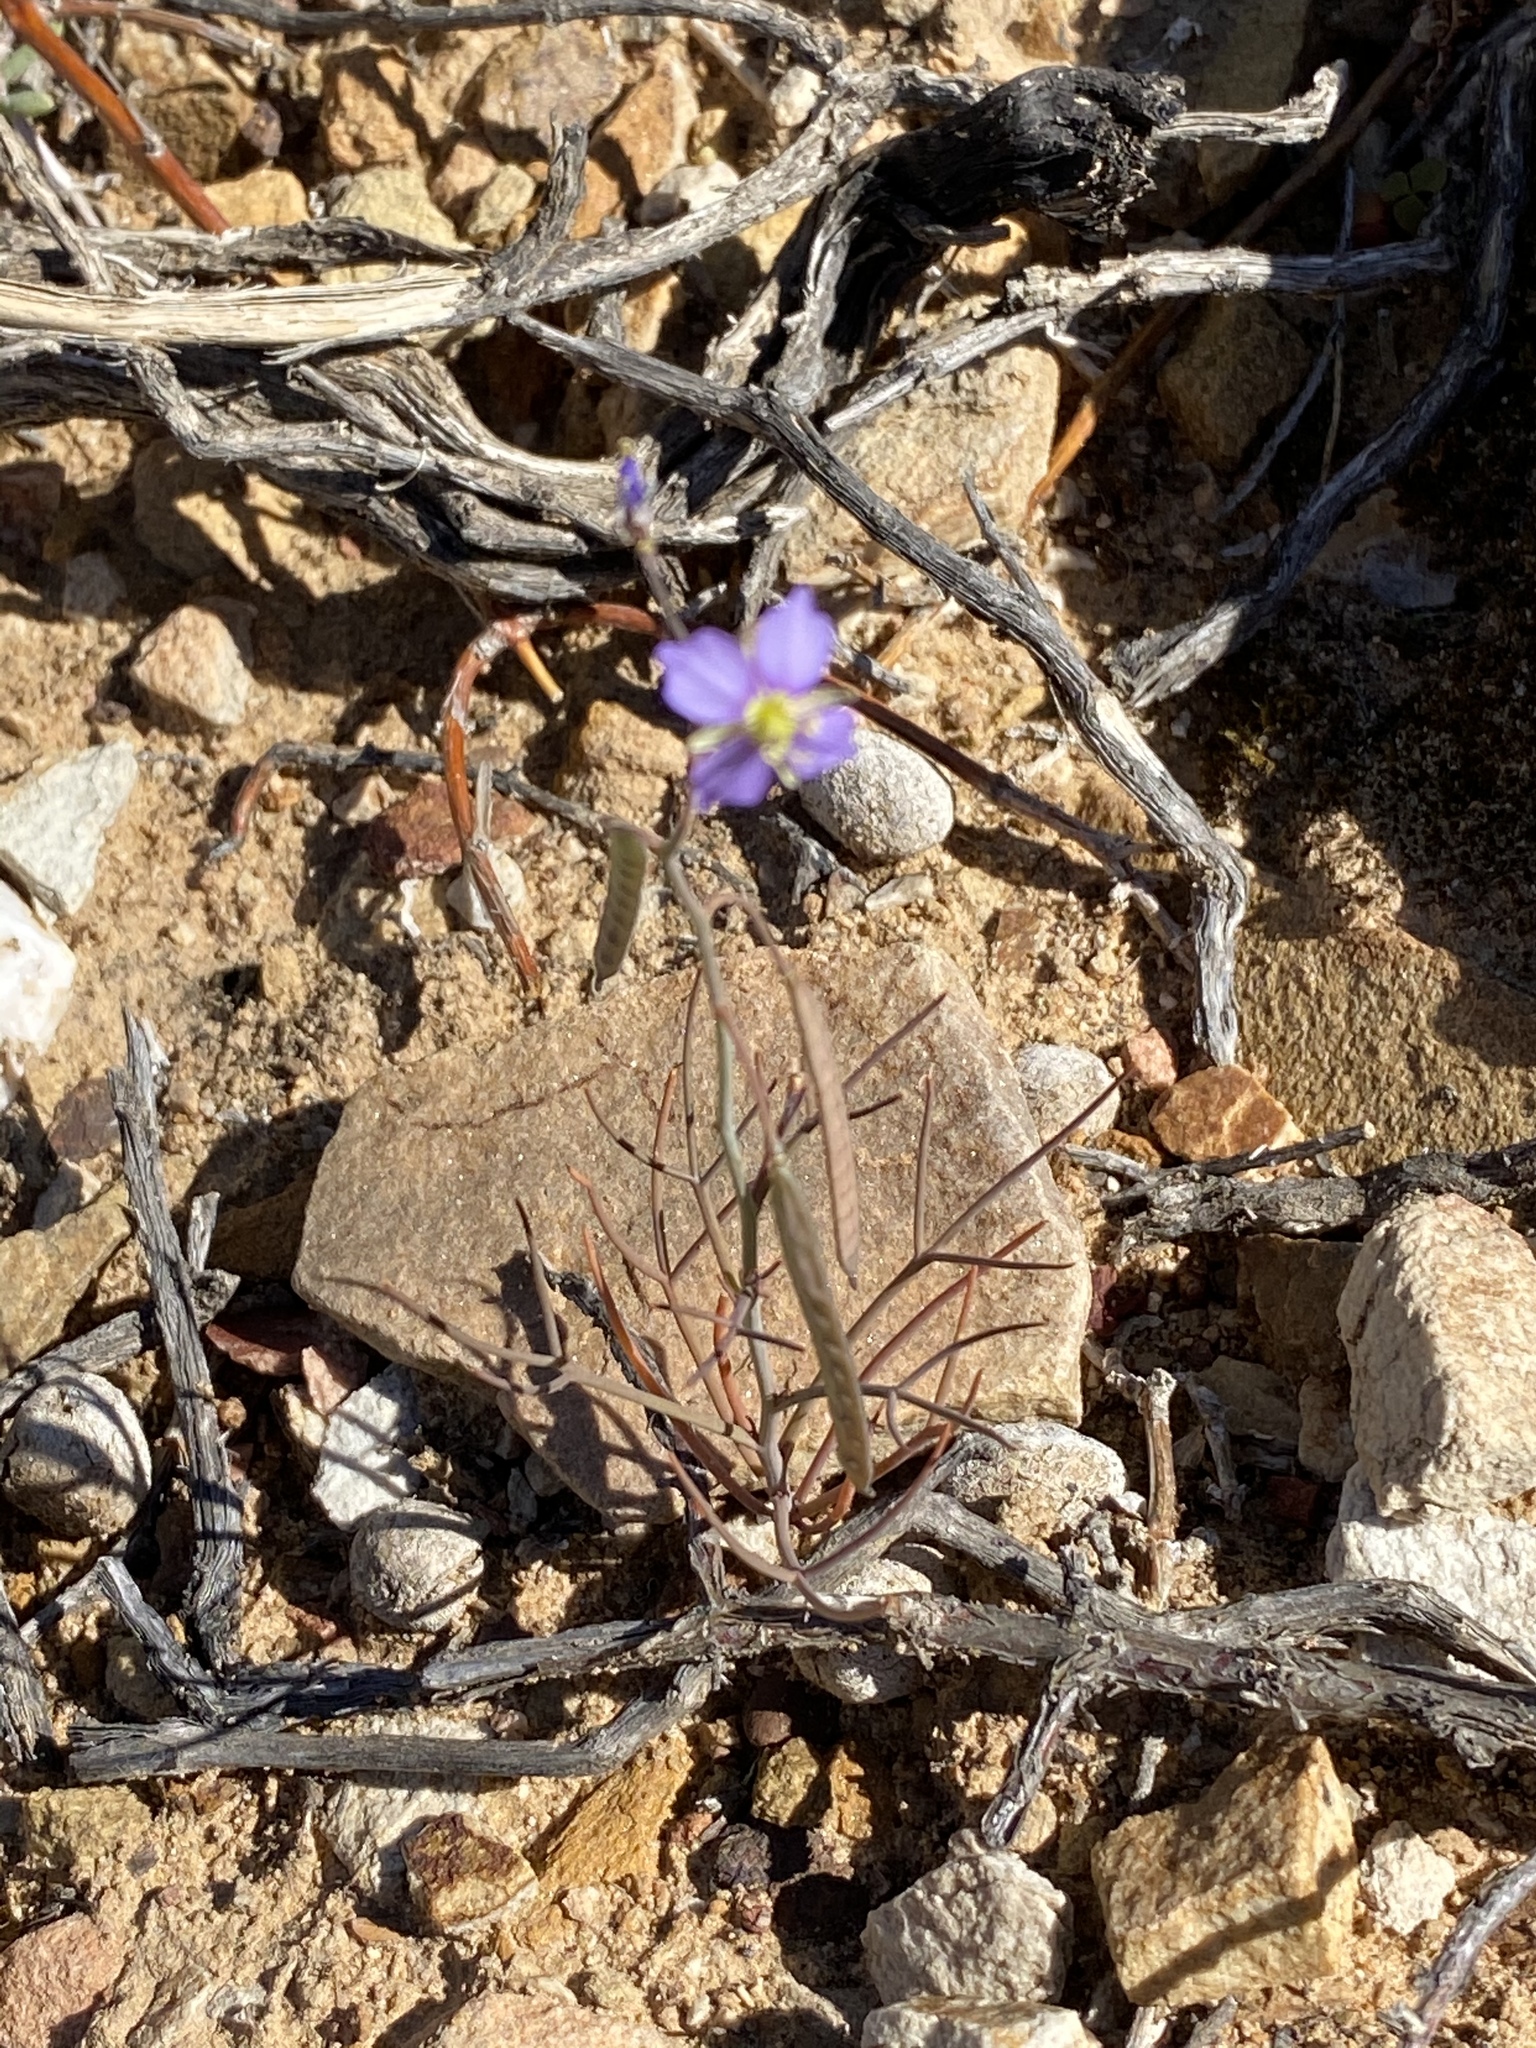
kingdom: Plantae
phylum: Tracheophyta
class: Magnoliopsida
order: Brassicales
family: Brassicaceae
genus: Heliophila
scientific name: Heliophila trifurca
